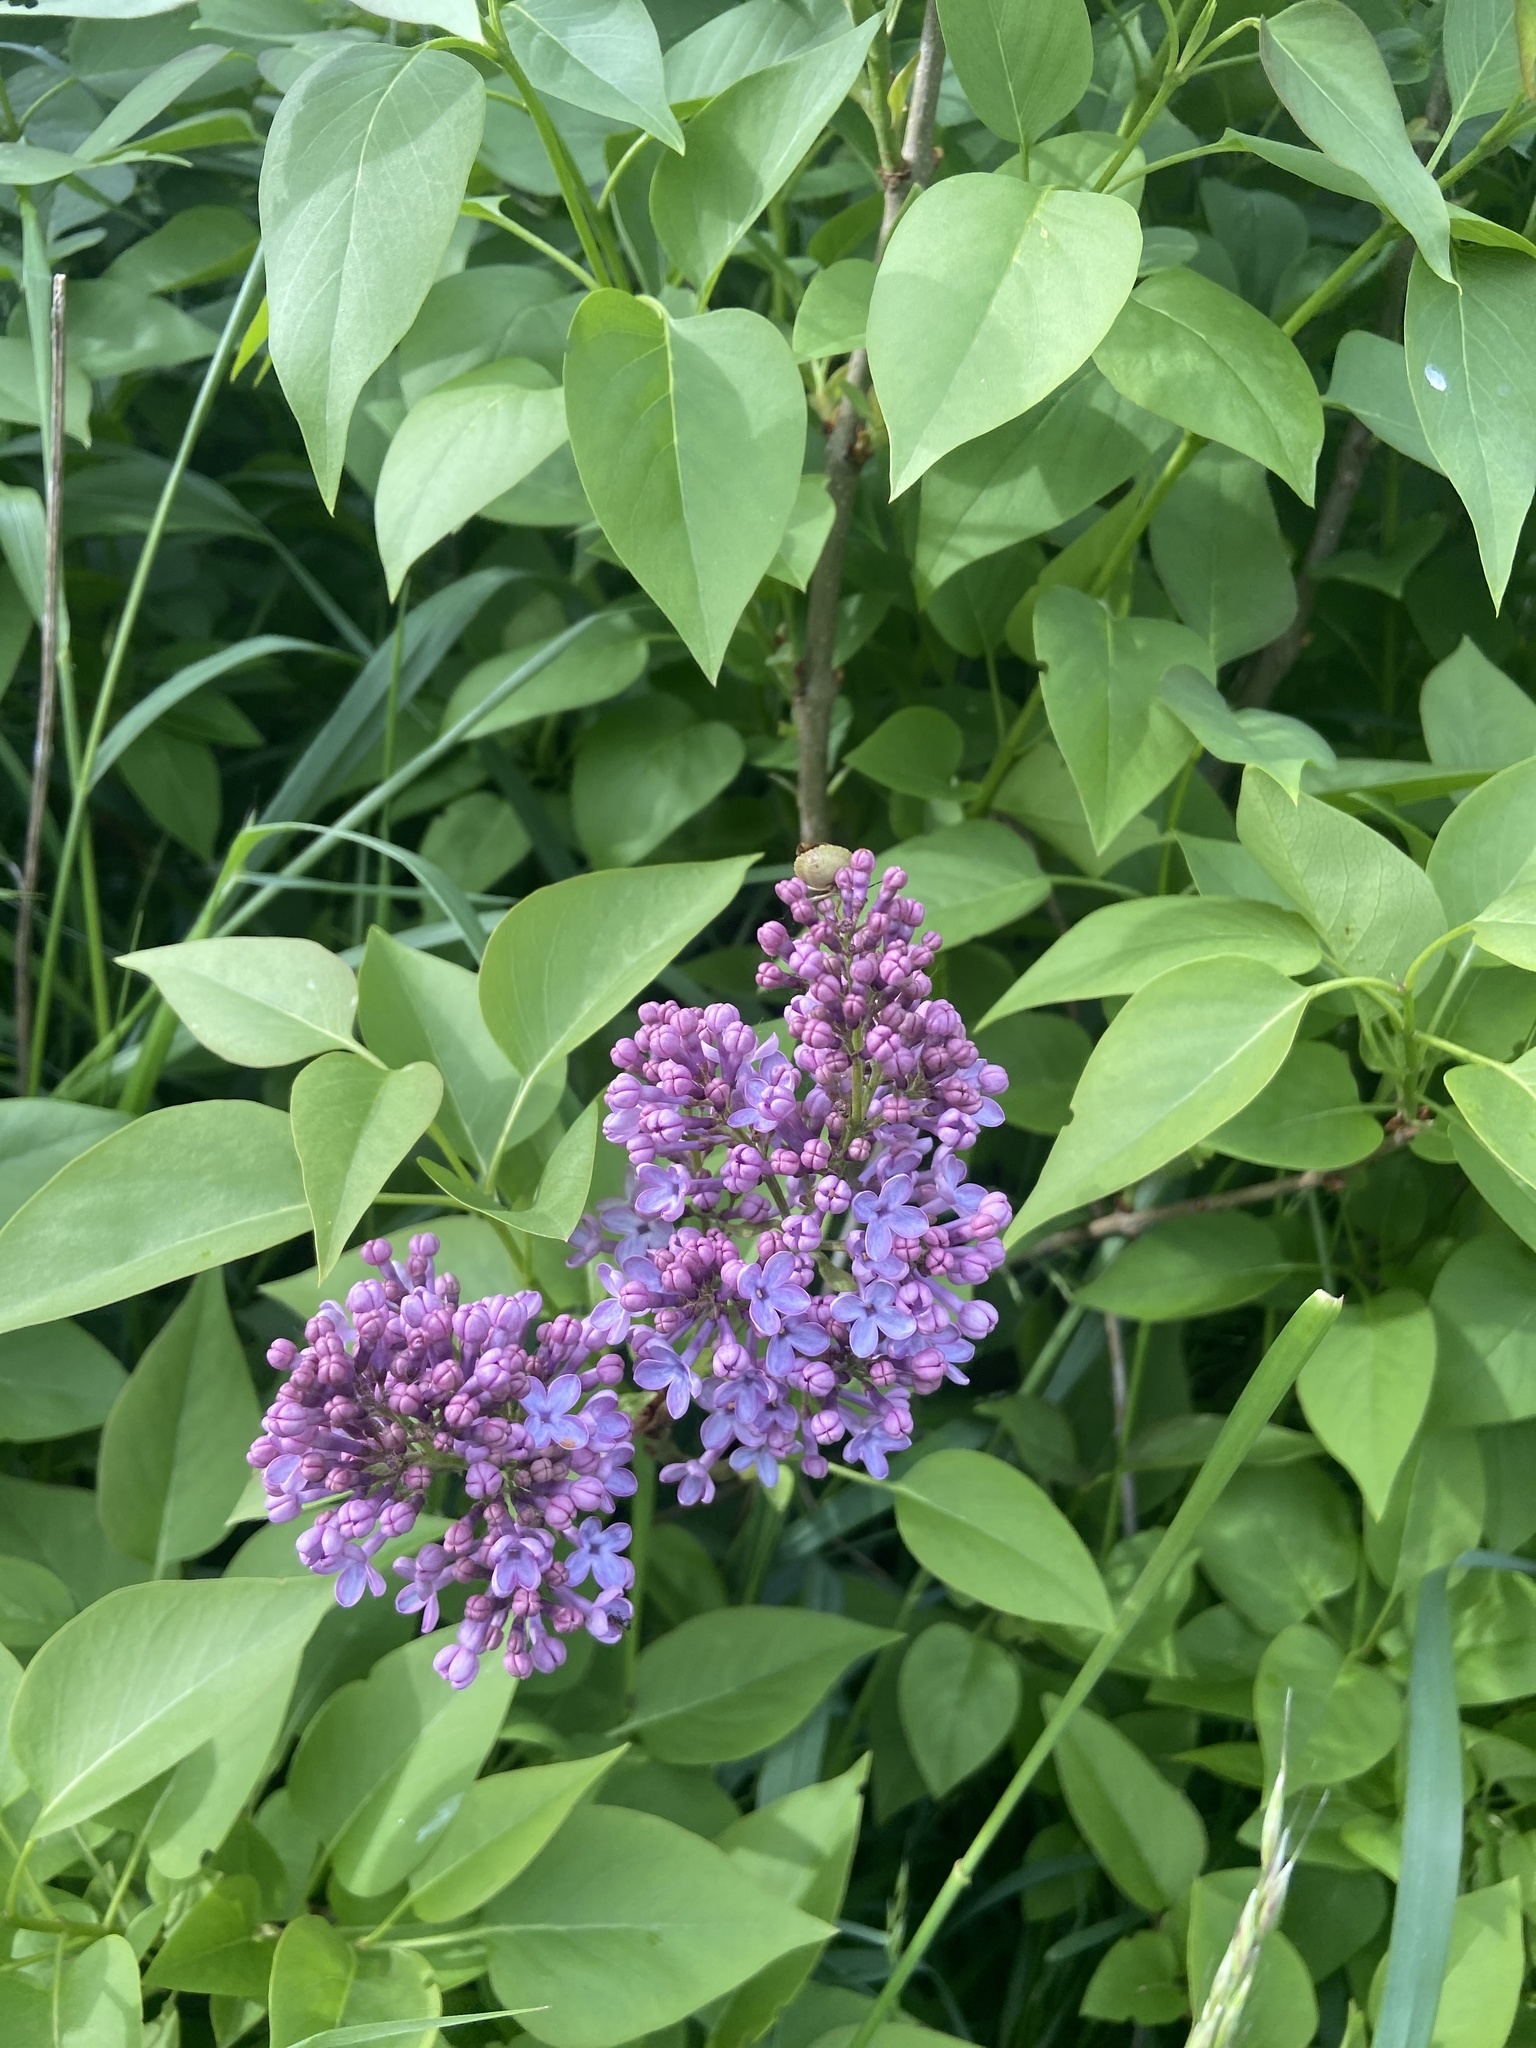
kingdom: Plantae
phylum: Tracheophyta
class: Magnoliopsida
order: Lamiales
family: Oleaceae
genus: Syringa
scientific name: Syringa vulgaris
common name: Common lilac
